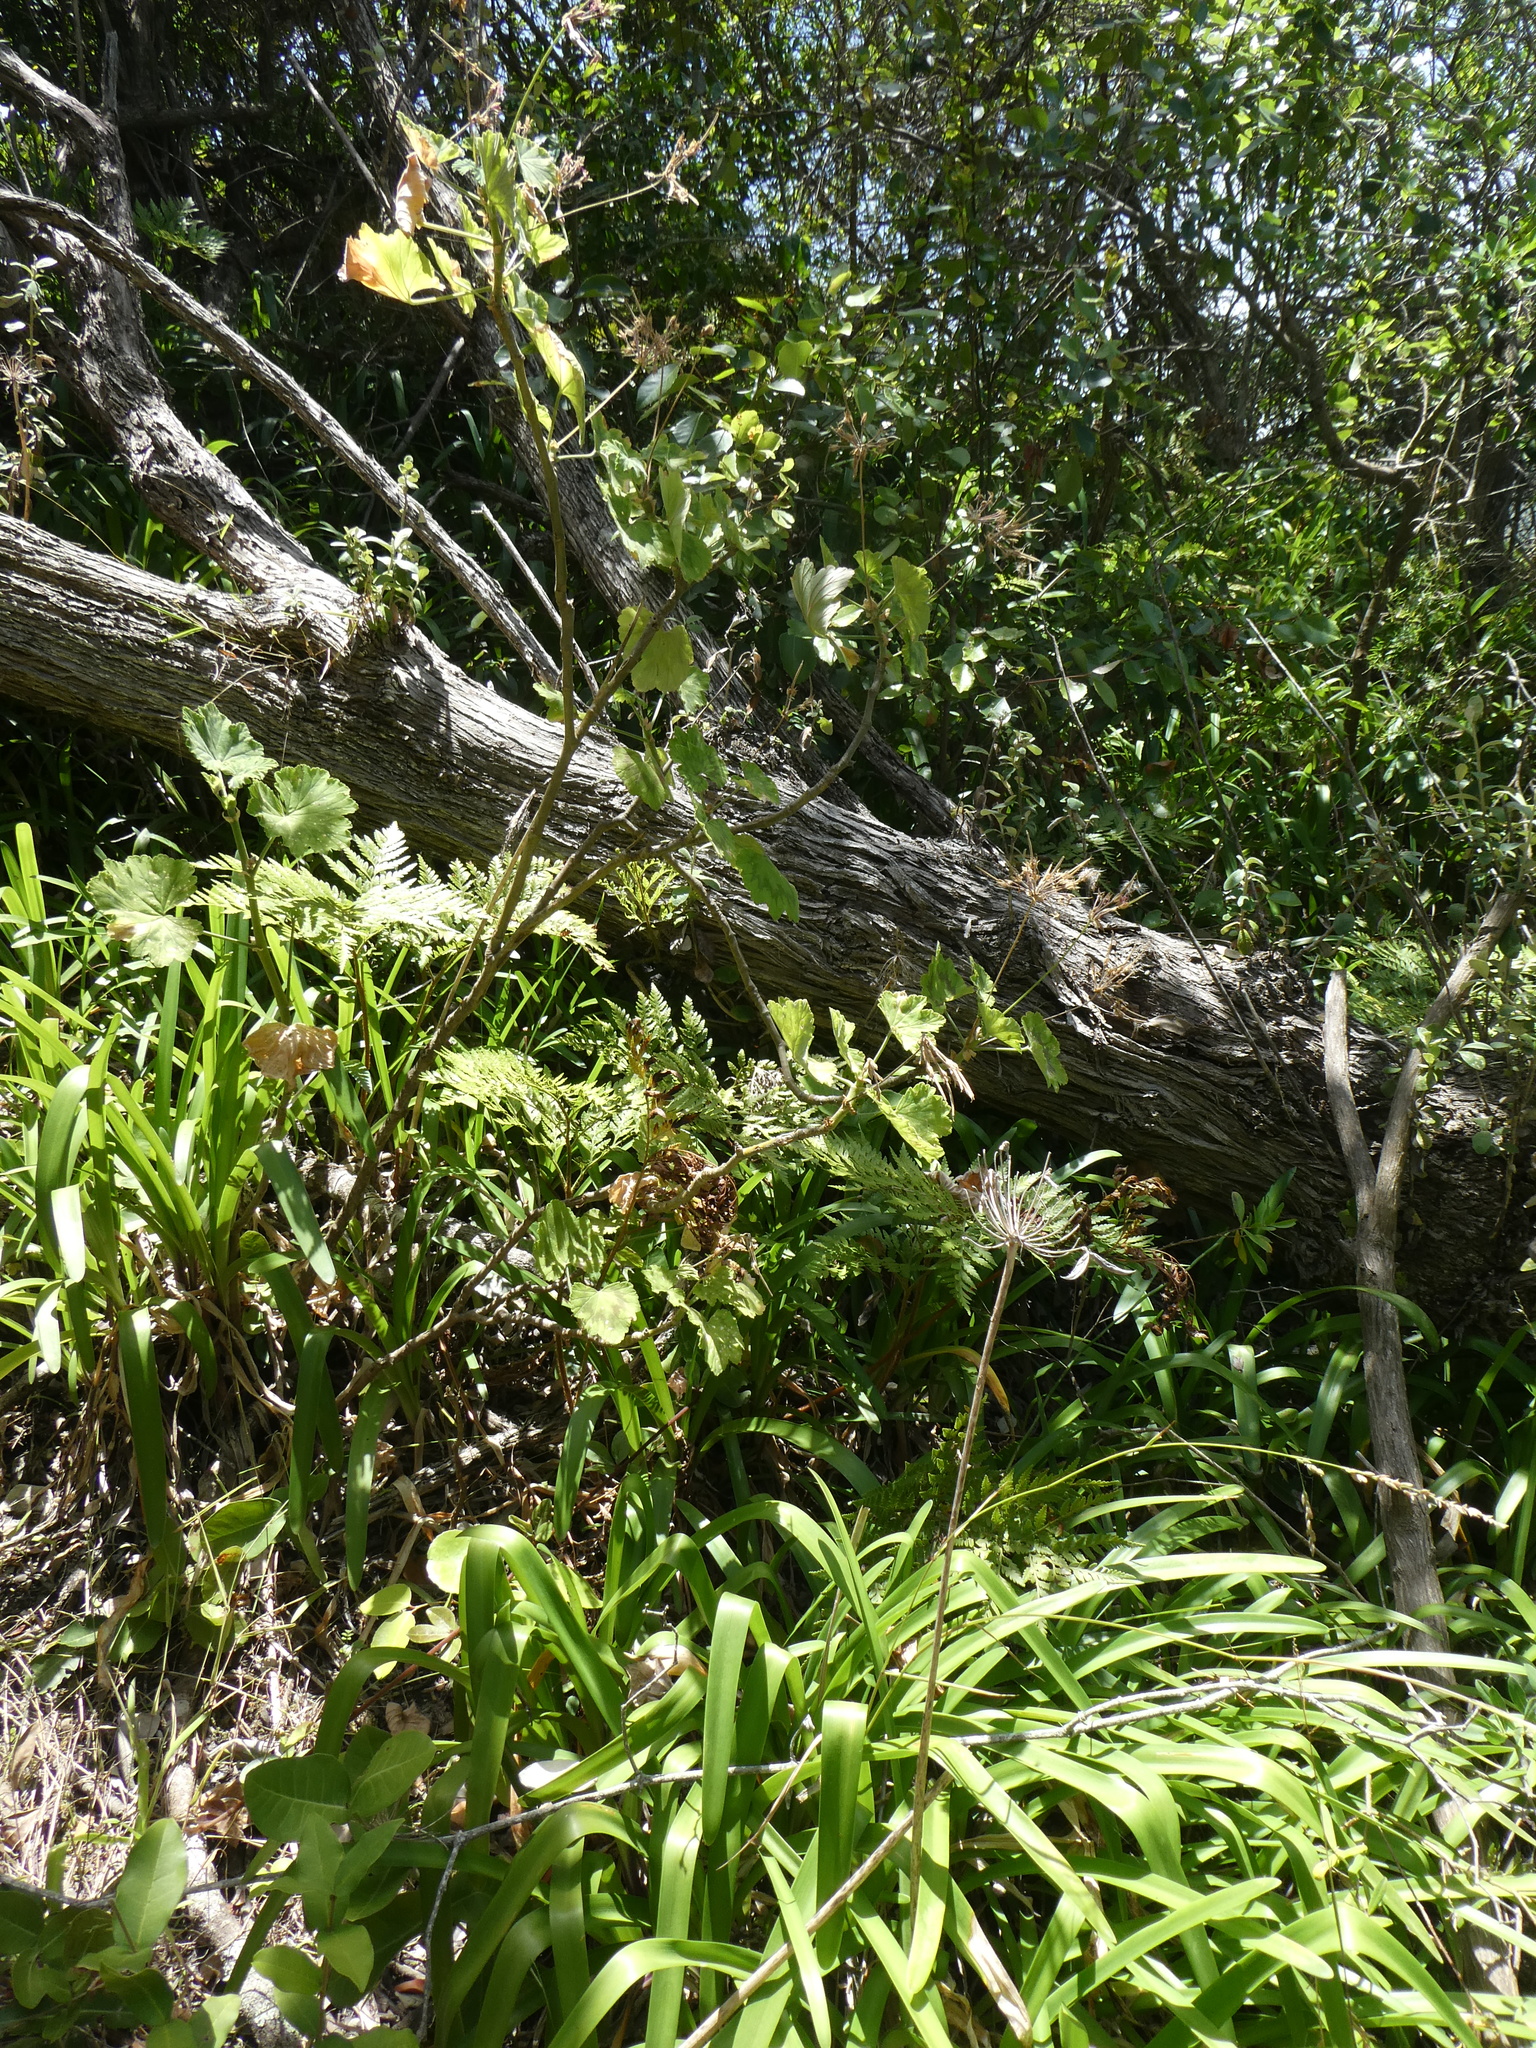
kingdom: Plantae
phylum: Tracheophyta
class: Magnoliopsida
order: Geraniales
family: Geraniaceae
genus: Pelargonium
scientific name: Pelargonium zonale
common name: Horseshoe geranium
